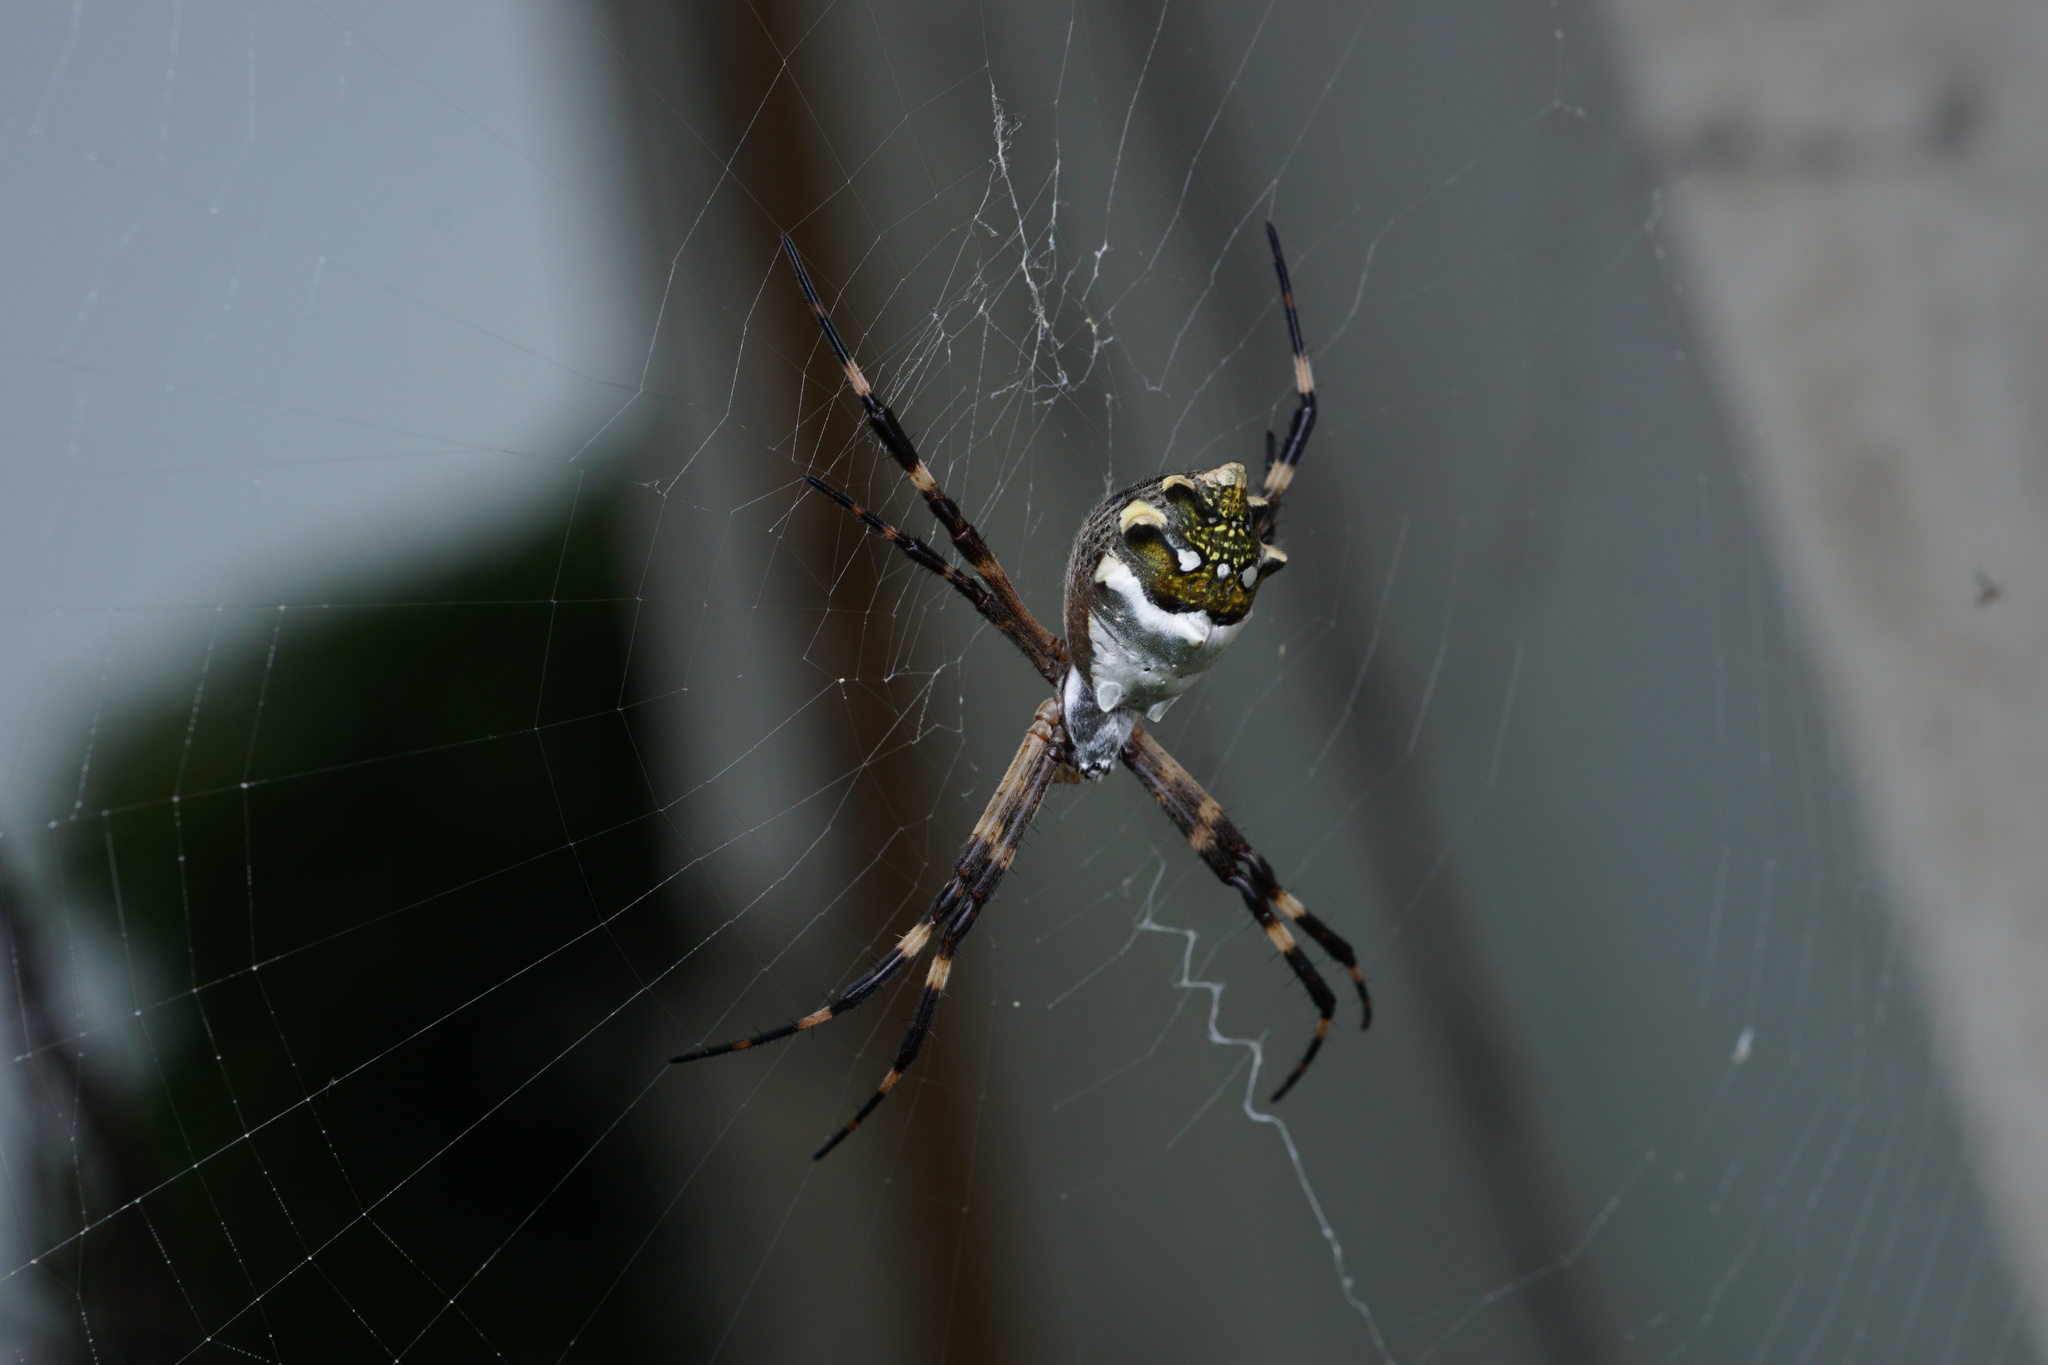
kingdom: Animalia
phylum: Arthropoda
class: Arachnida
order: Araneae
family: Araneidae
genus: Argiope
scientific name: Argiope argentata
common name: Orb weavers
